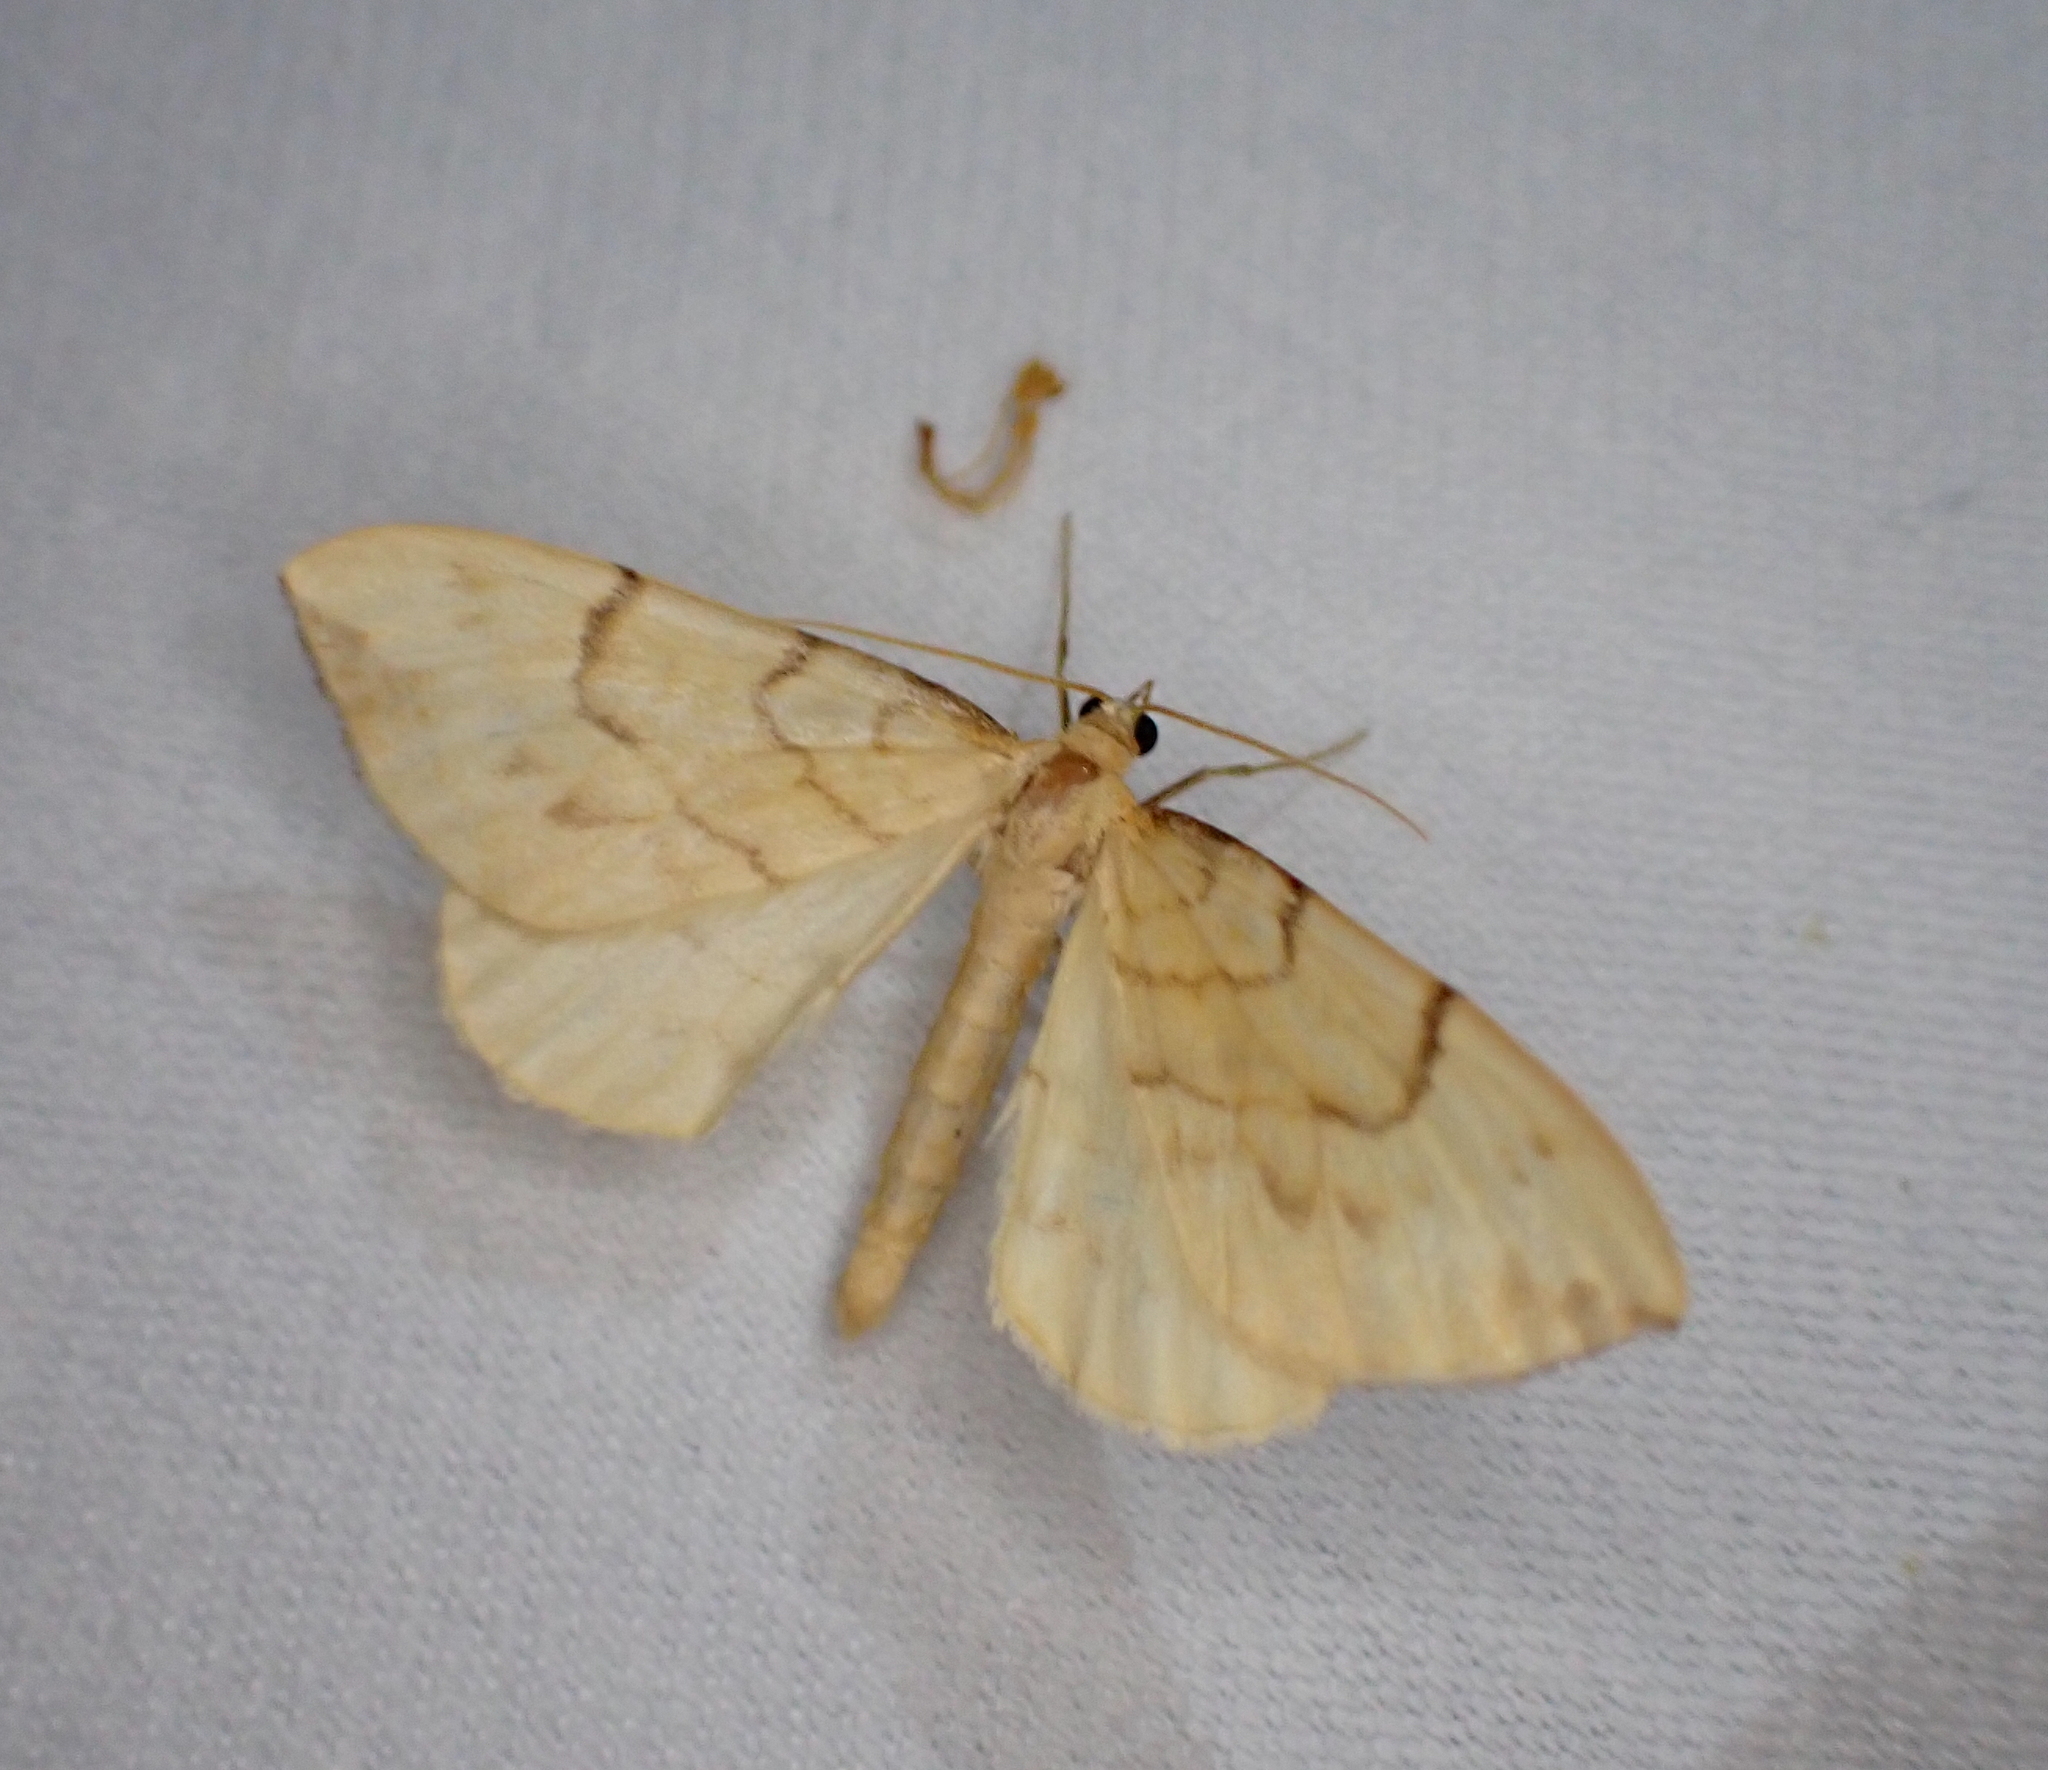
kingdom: Animalia
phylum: Arthropoda
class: Insecta
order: Lepidoptera
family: Geometridae
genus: Eulithis
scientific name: Eulithis pyraliata
